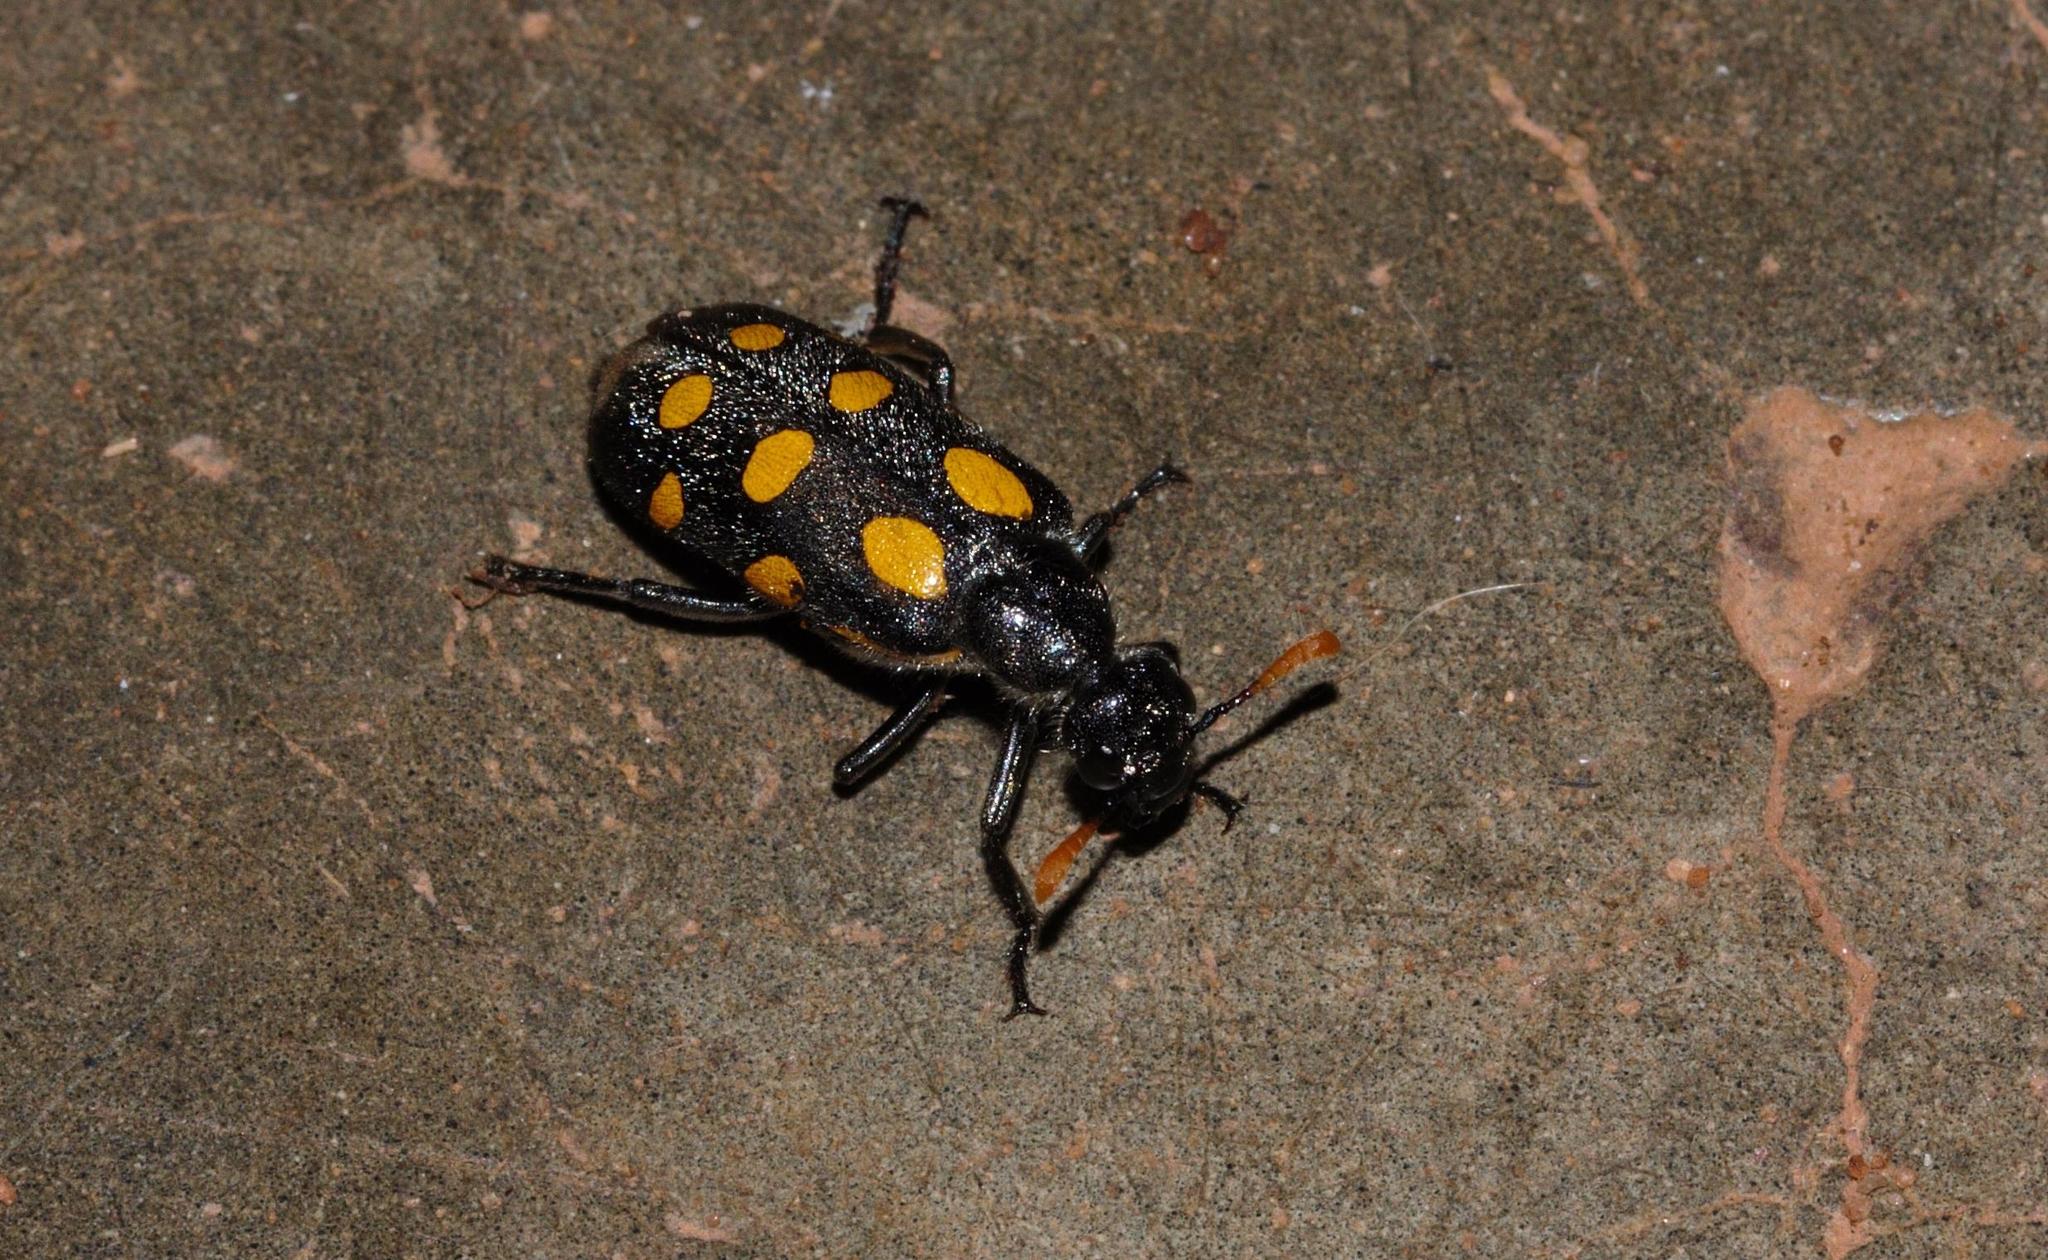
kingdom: Animalia
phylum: Arthropoda
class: Insecta
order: Coleoptera
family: Meloidae
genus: Hycleus
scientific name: Hycleus lugens
